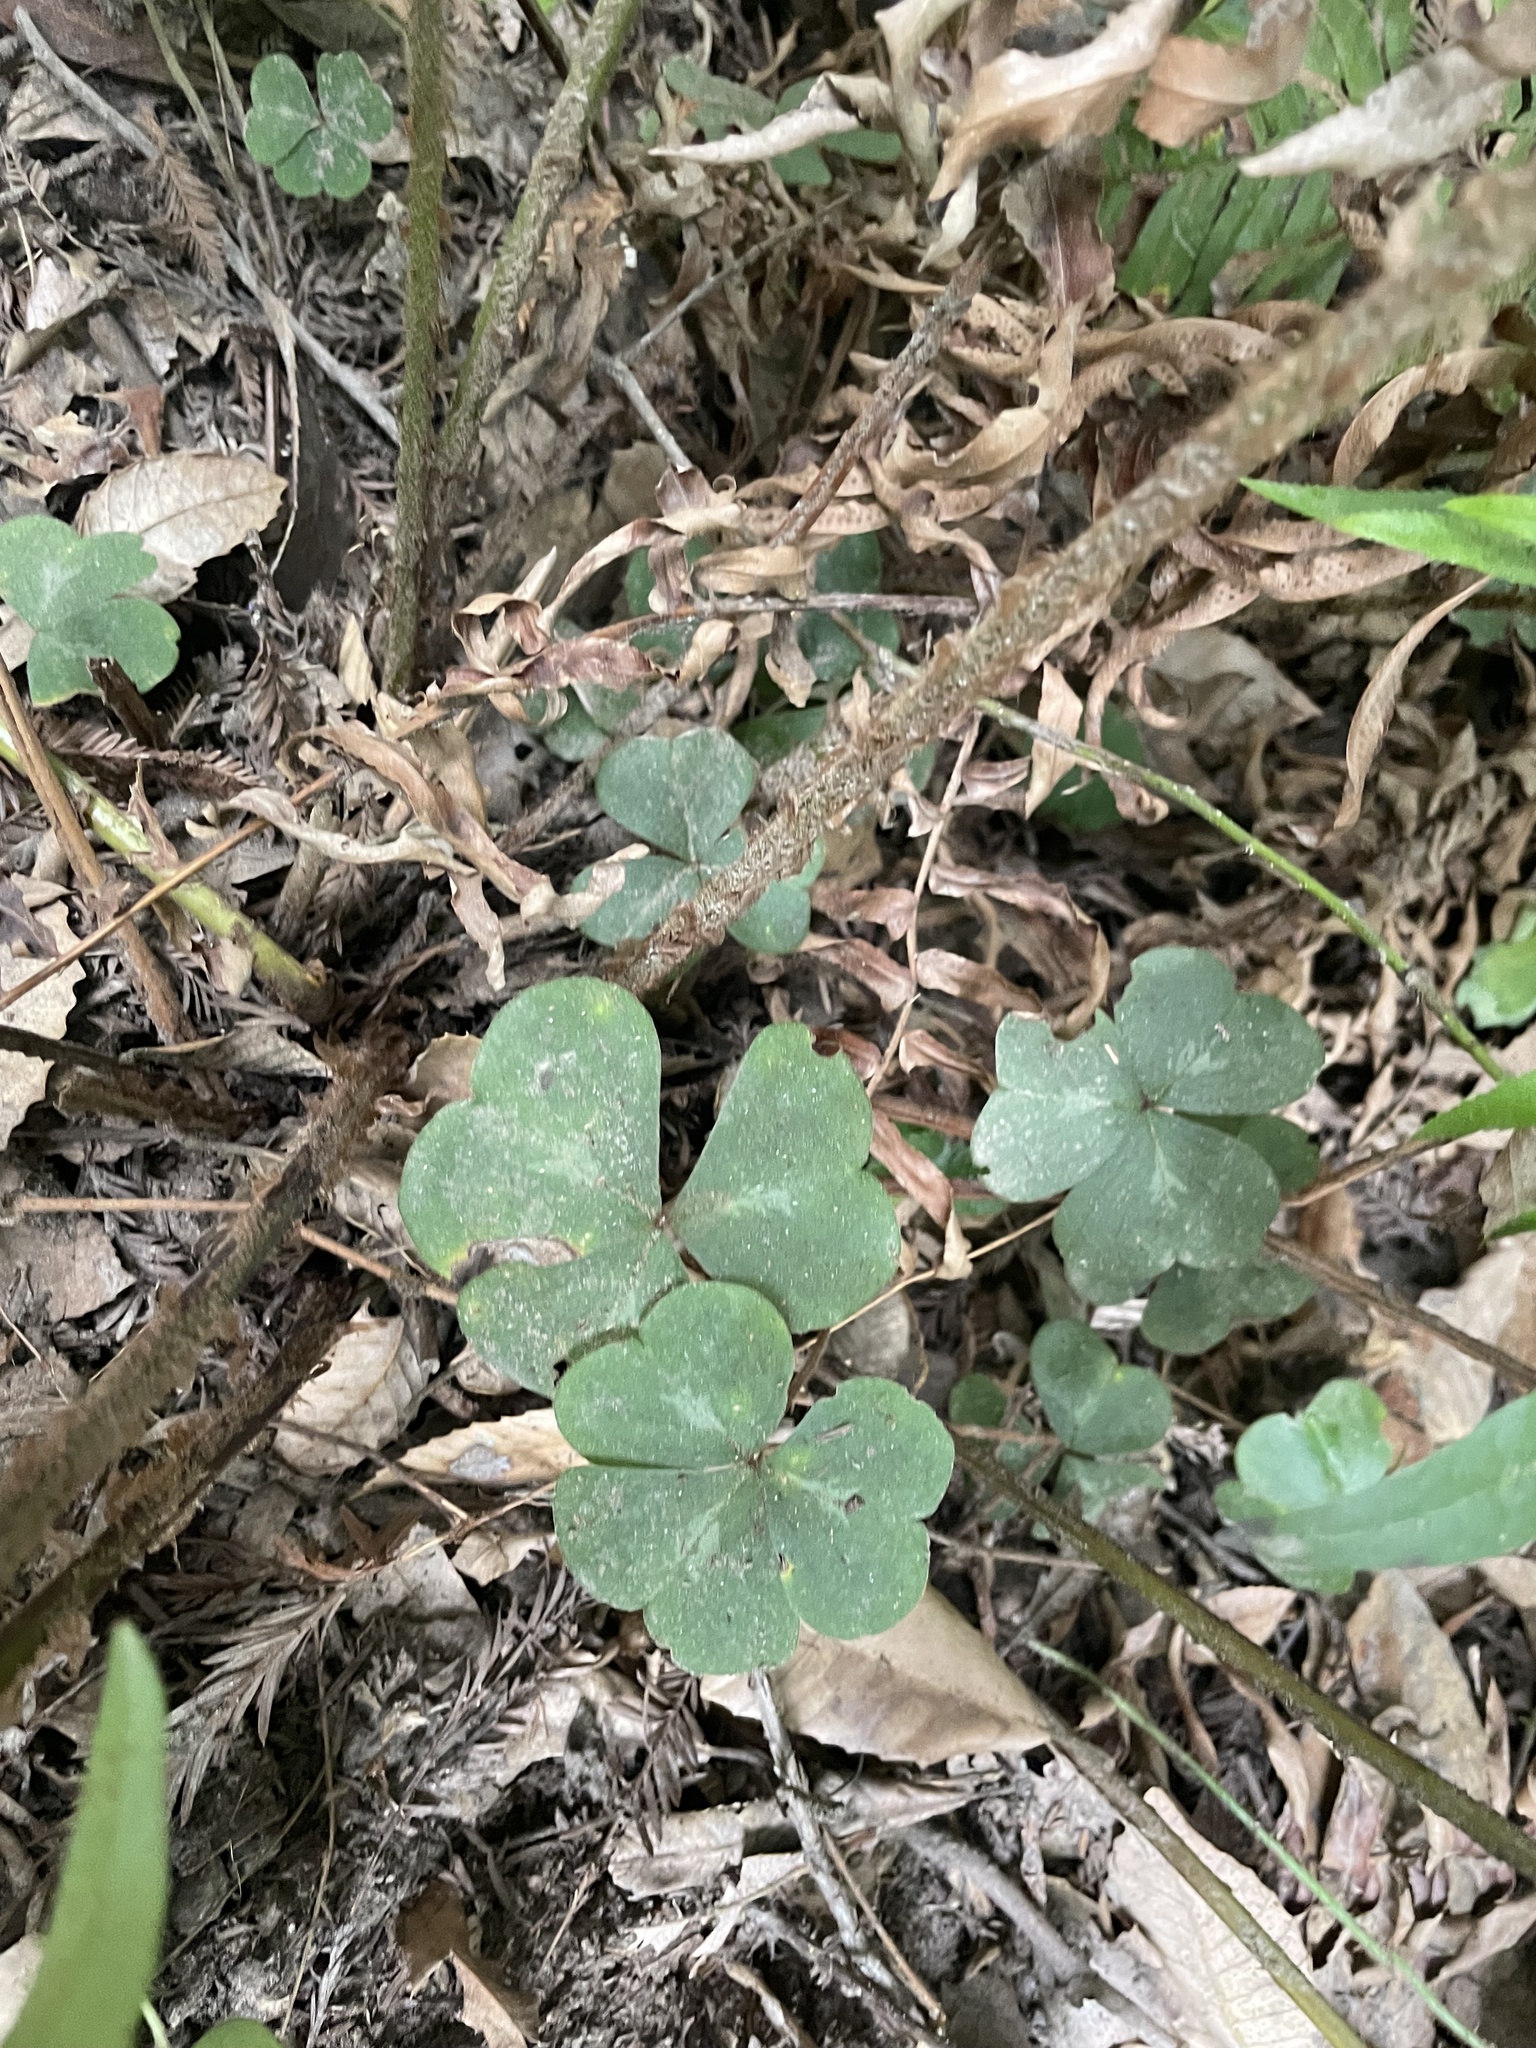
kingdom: Plantae
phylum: Tracheophyta
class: Magnoliopsida
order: Oxalidales
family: Oxalidaceae
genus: Oxalis
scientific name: Oxalis oregana
